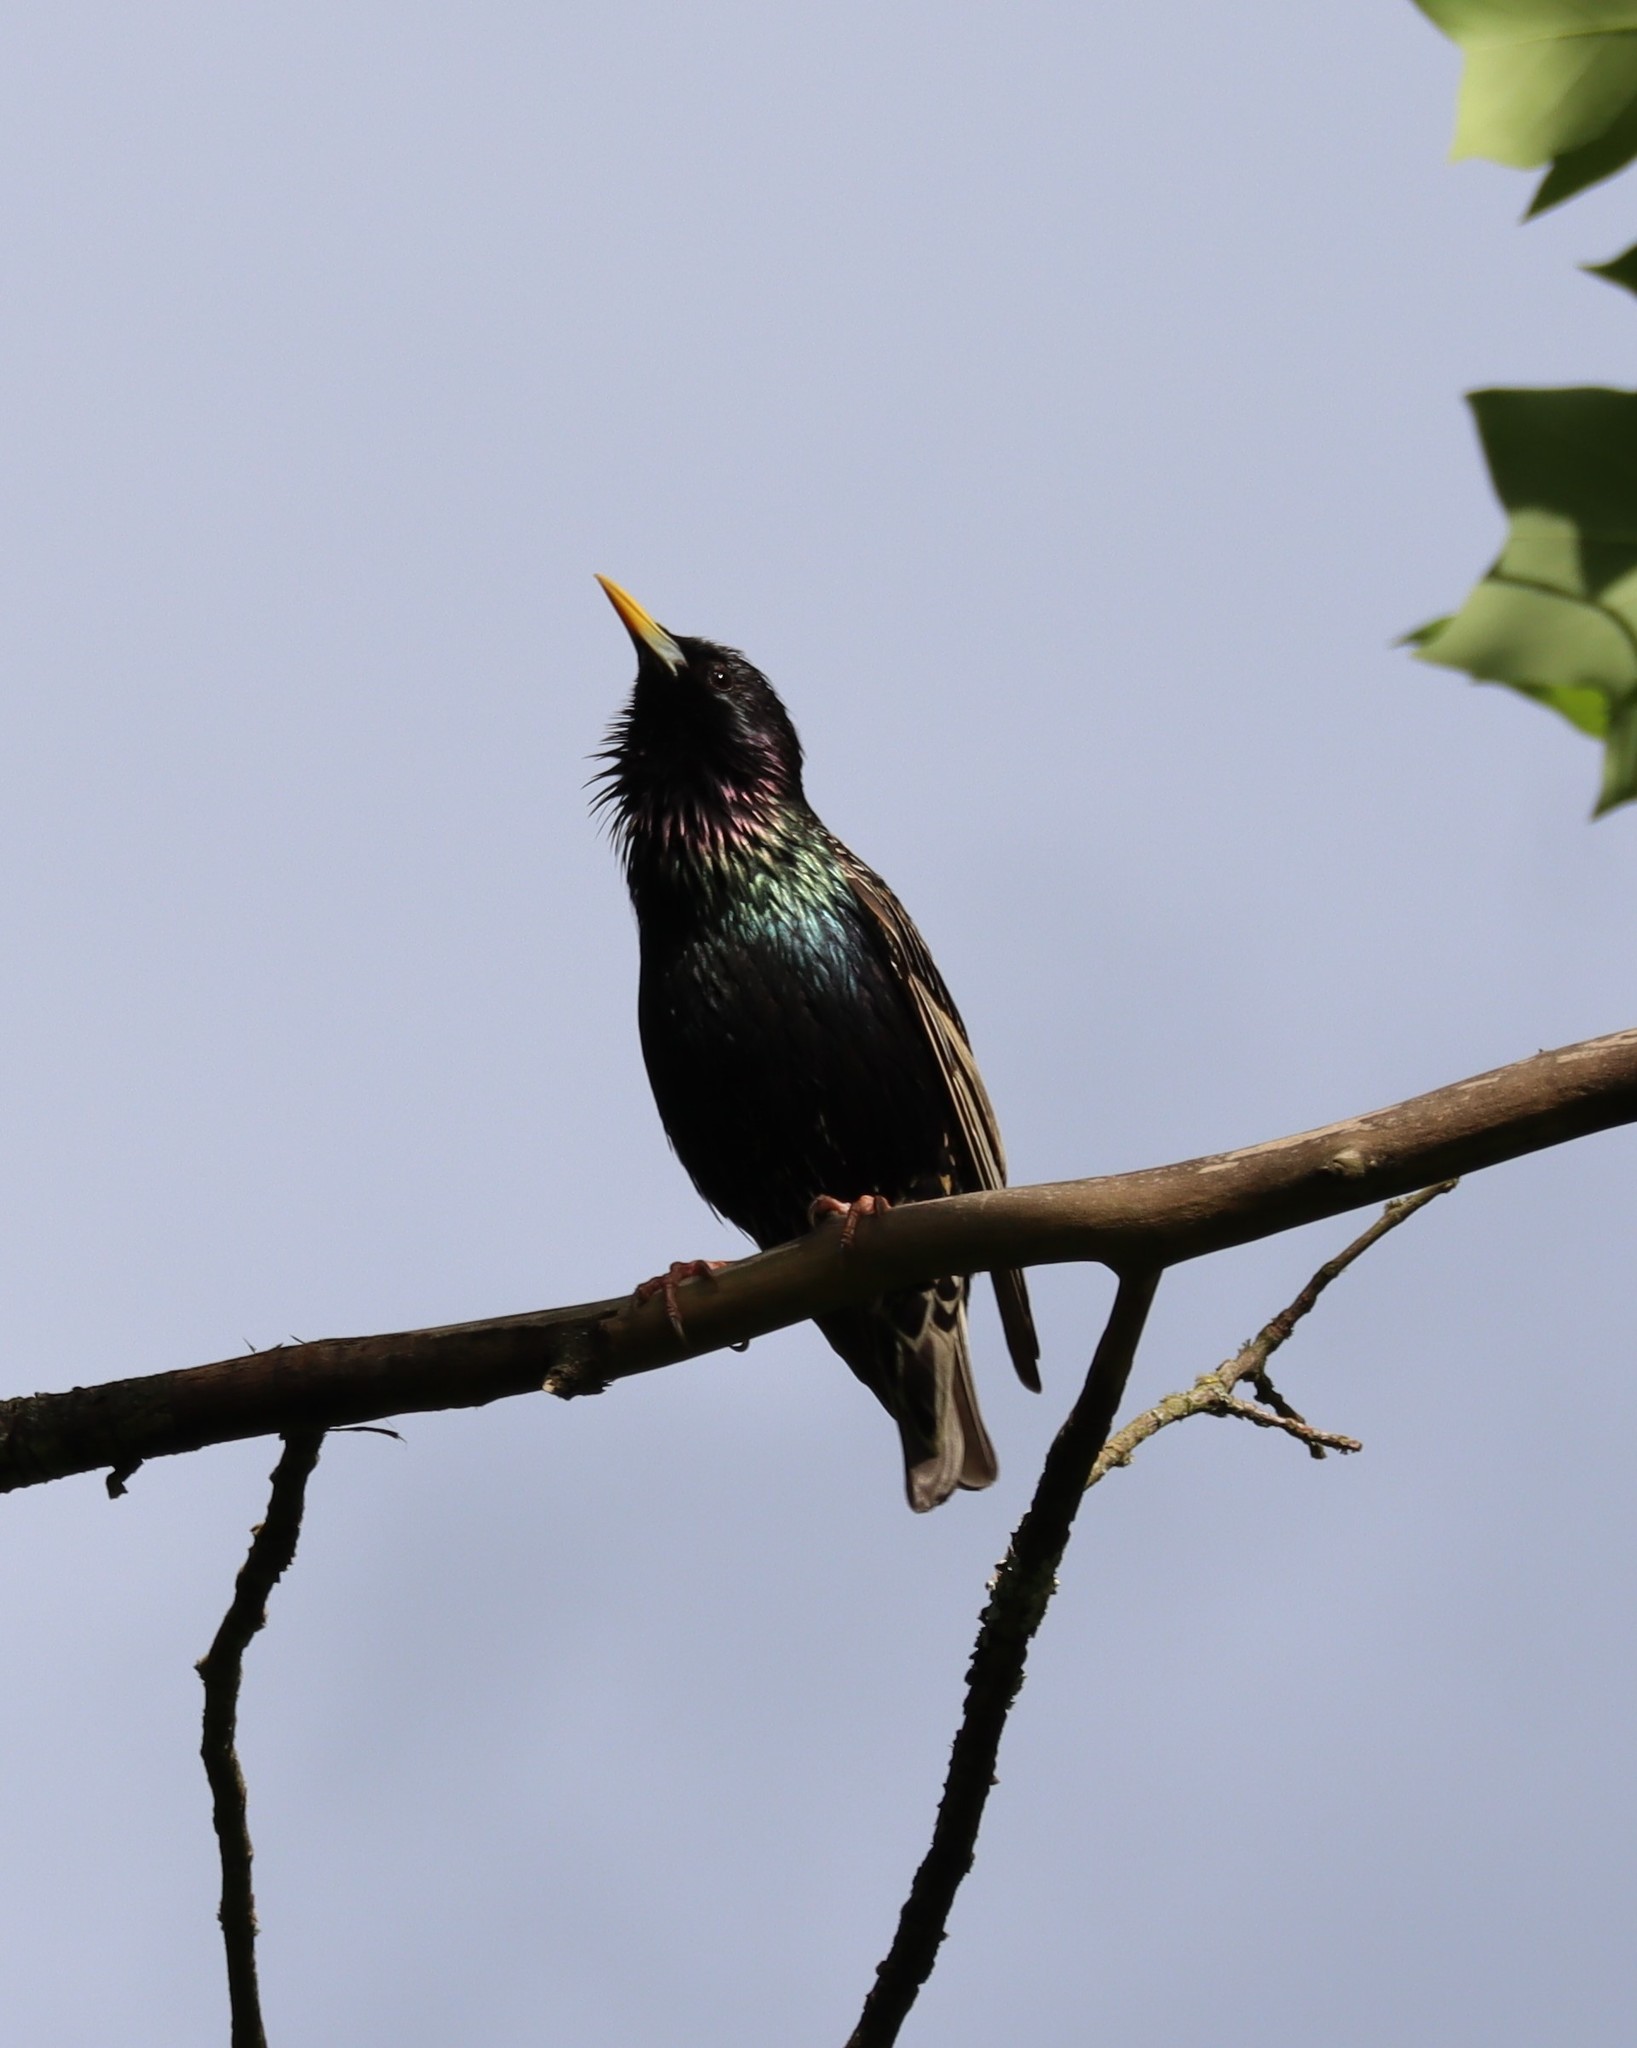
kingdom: Animalia
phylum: Chordata
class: Aves
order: Passeriformes
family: Sturnidae
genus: Sturnus
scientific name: Sturnus vulgaris
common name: Common starling
